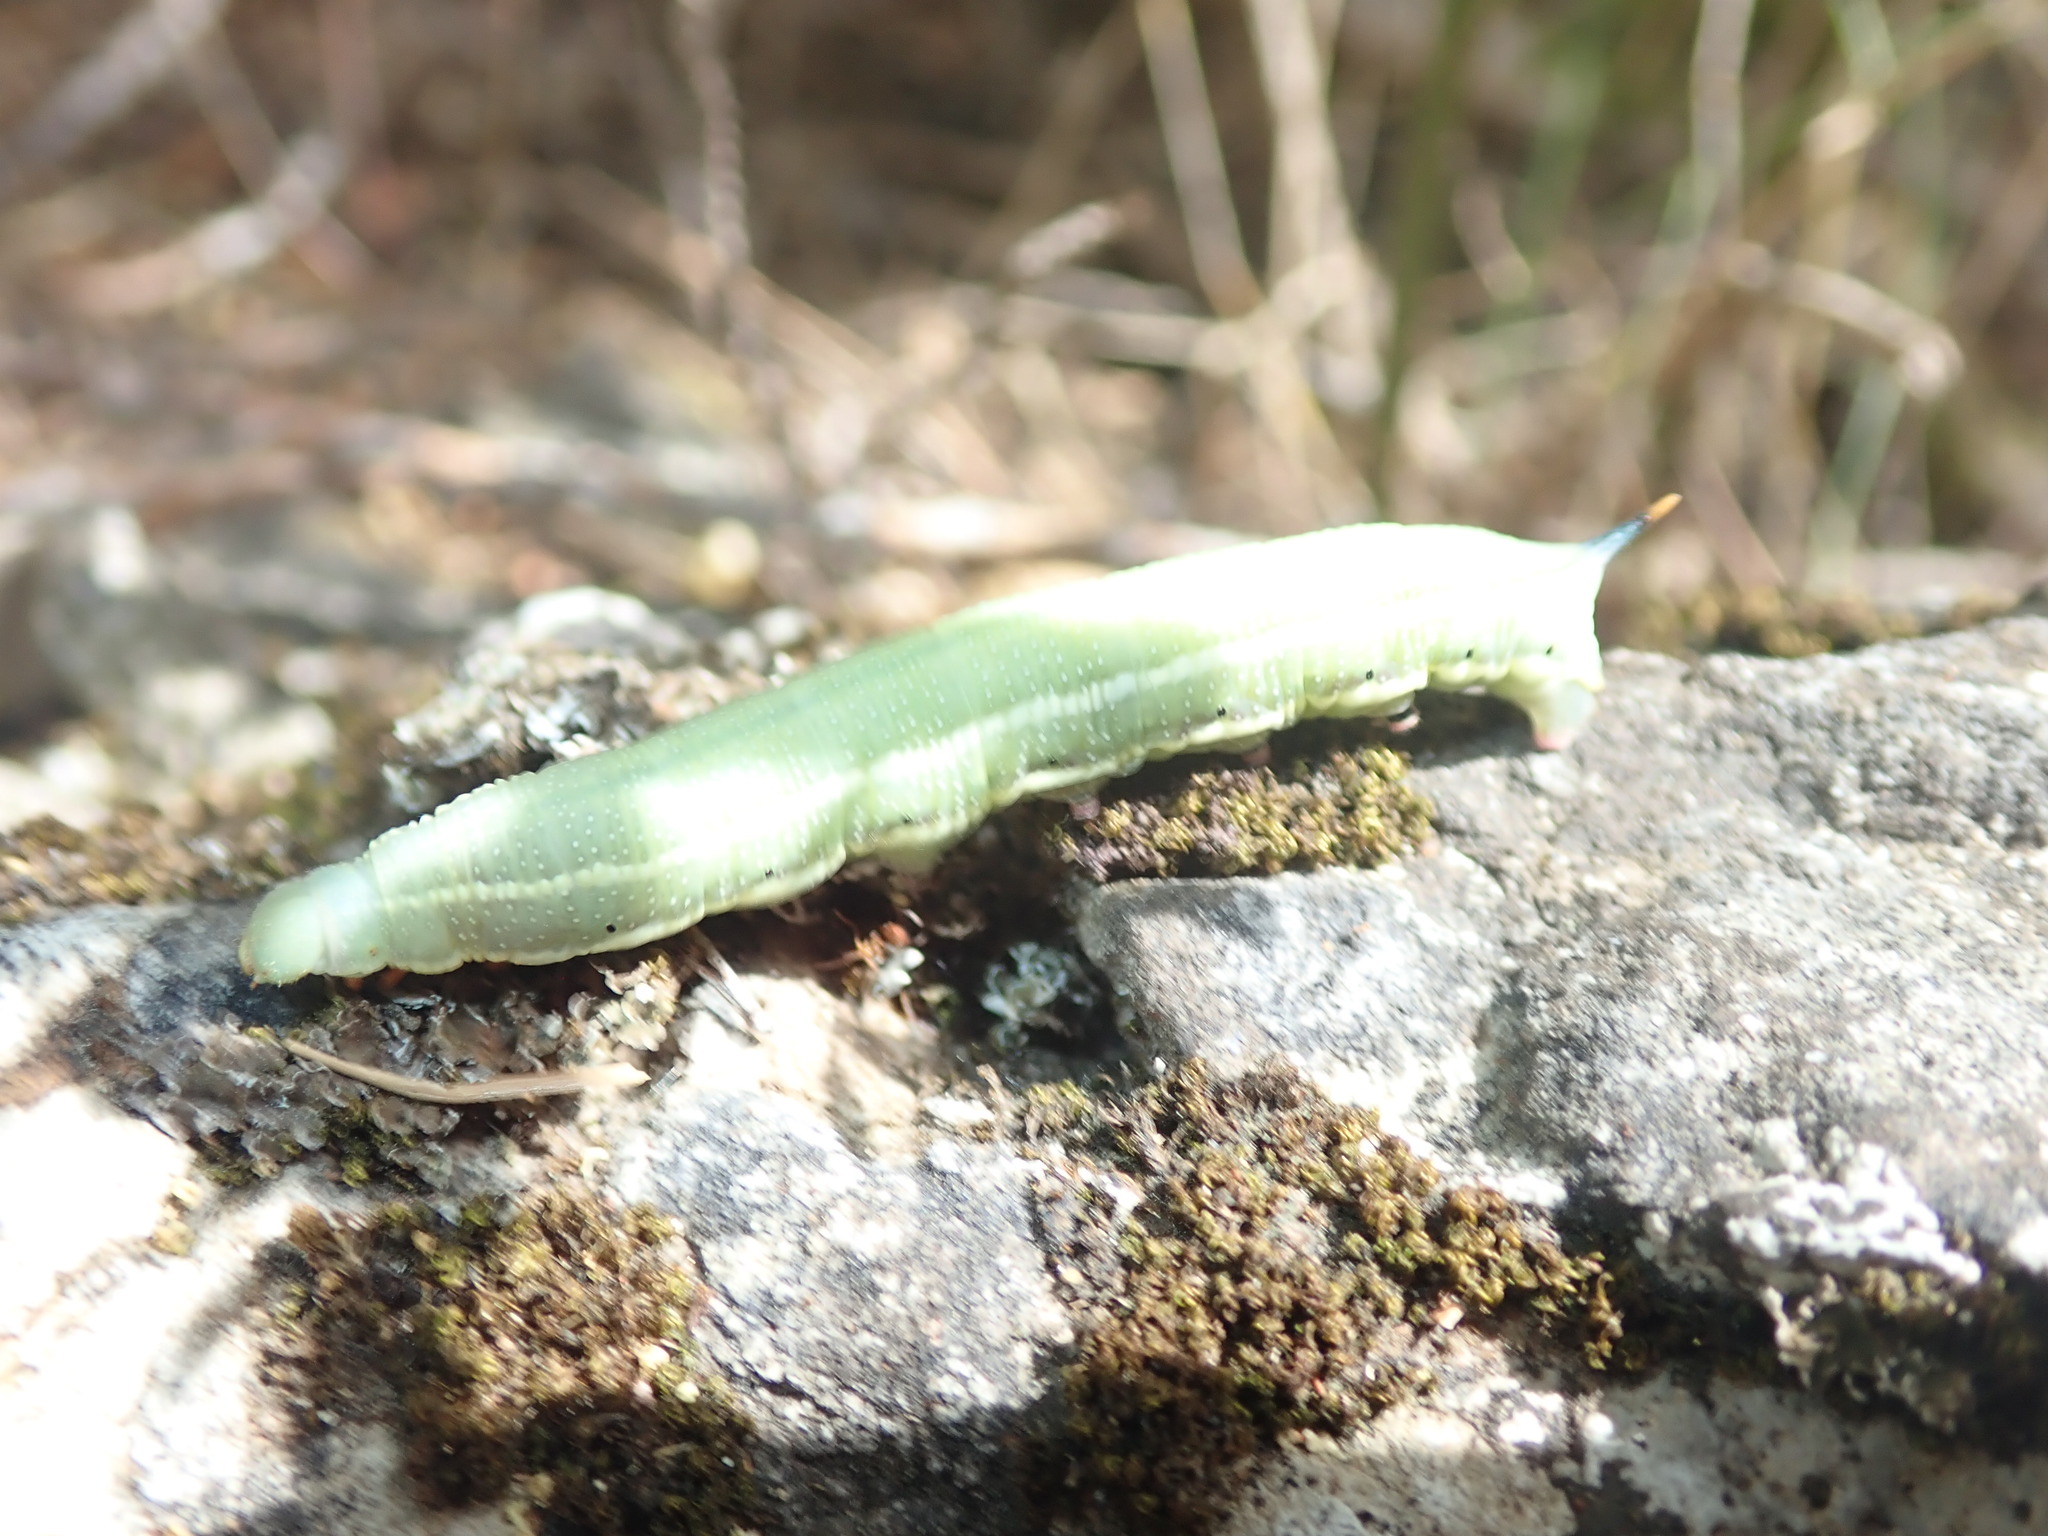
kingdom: Animalia
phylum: Arthropoda
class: Insecta
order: Lepidoptera
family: Sphingidae
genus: Macroglossum
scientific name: Macroglossum stellatarum
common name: Humming-bird hawk-moth
